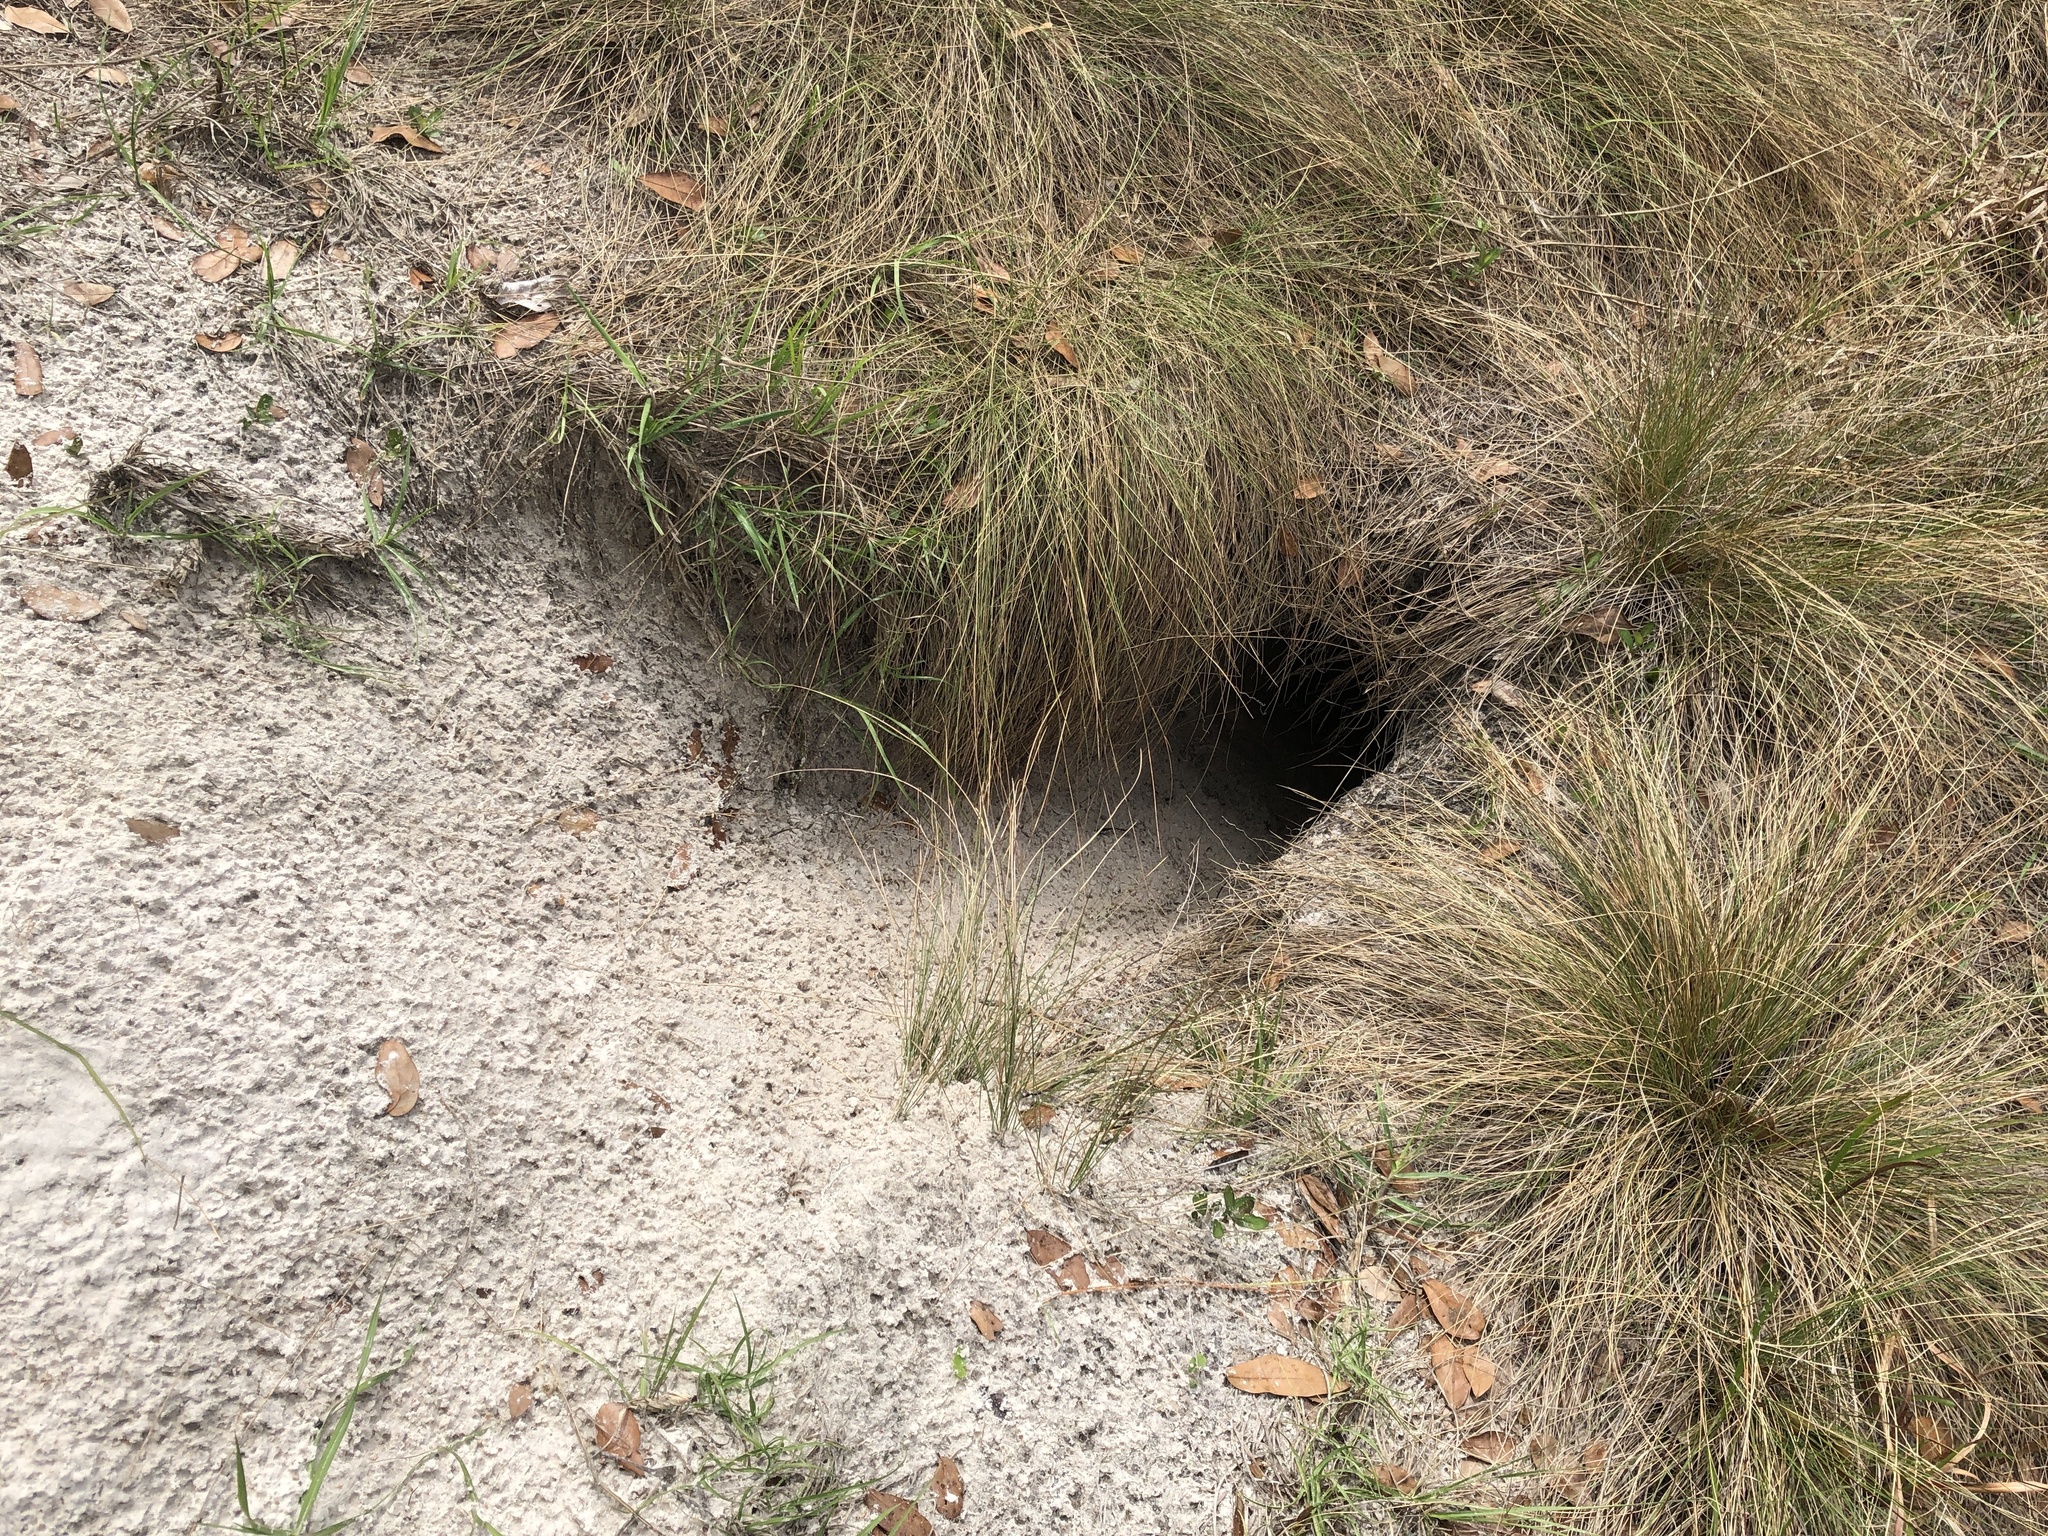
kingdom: Animalia
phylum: Chordata
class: Testudines
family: Testudinidae
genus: Gopherus
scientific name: Gopherus polyphemus
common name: Florida gopher tortoise
